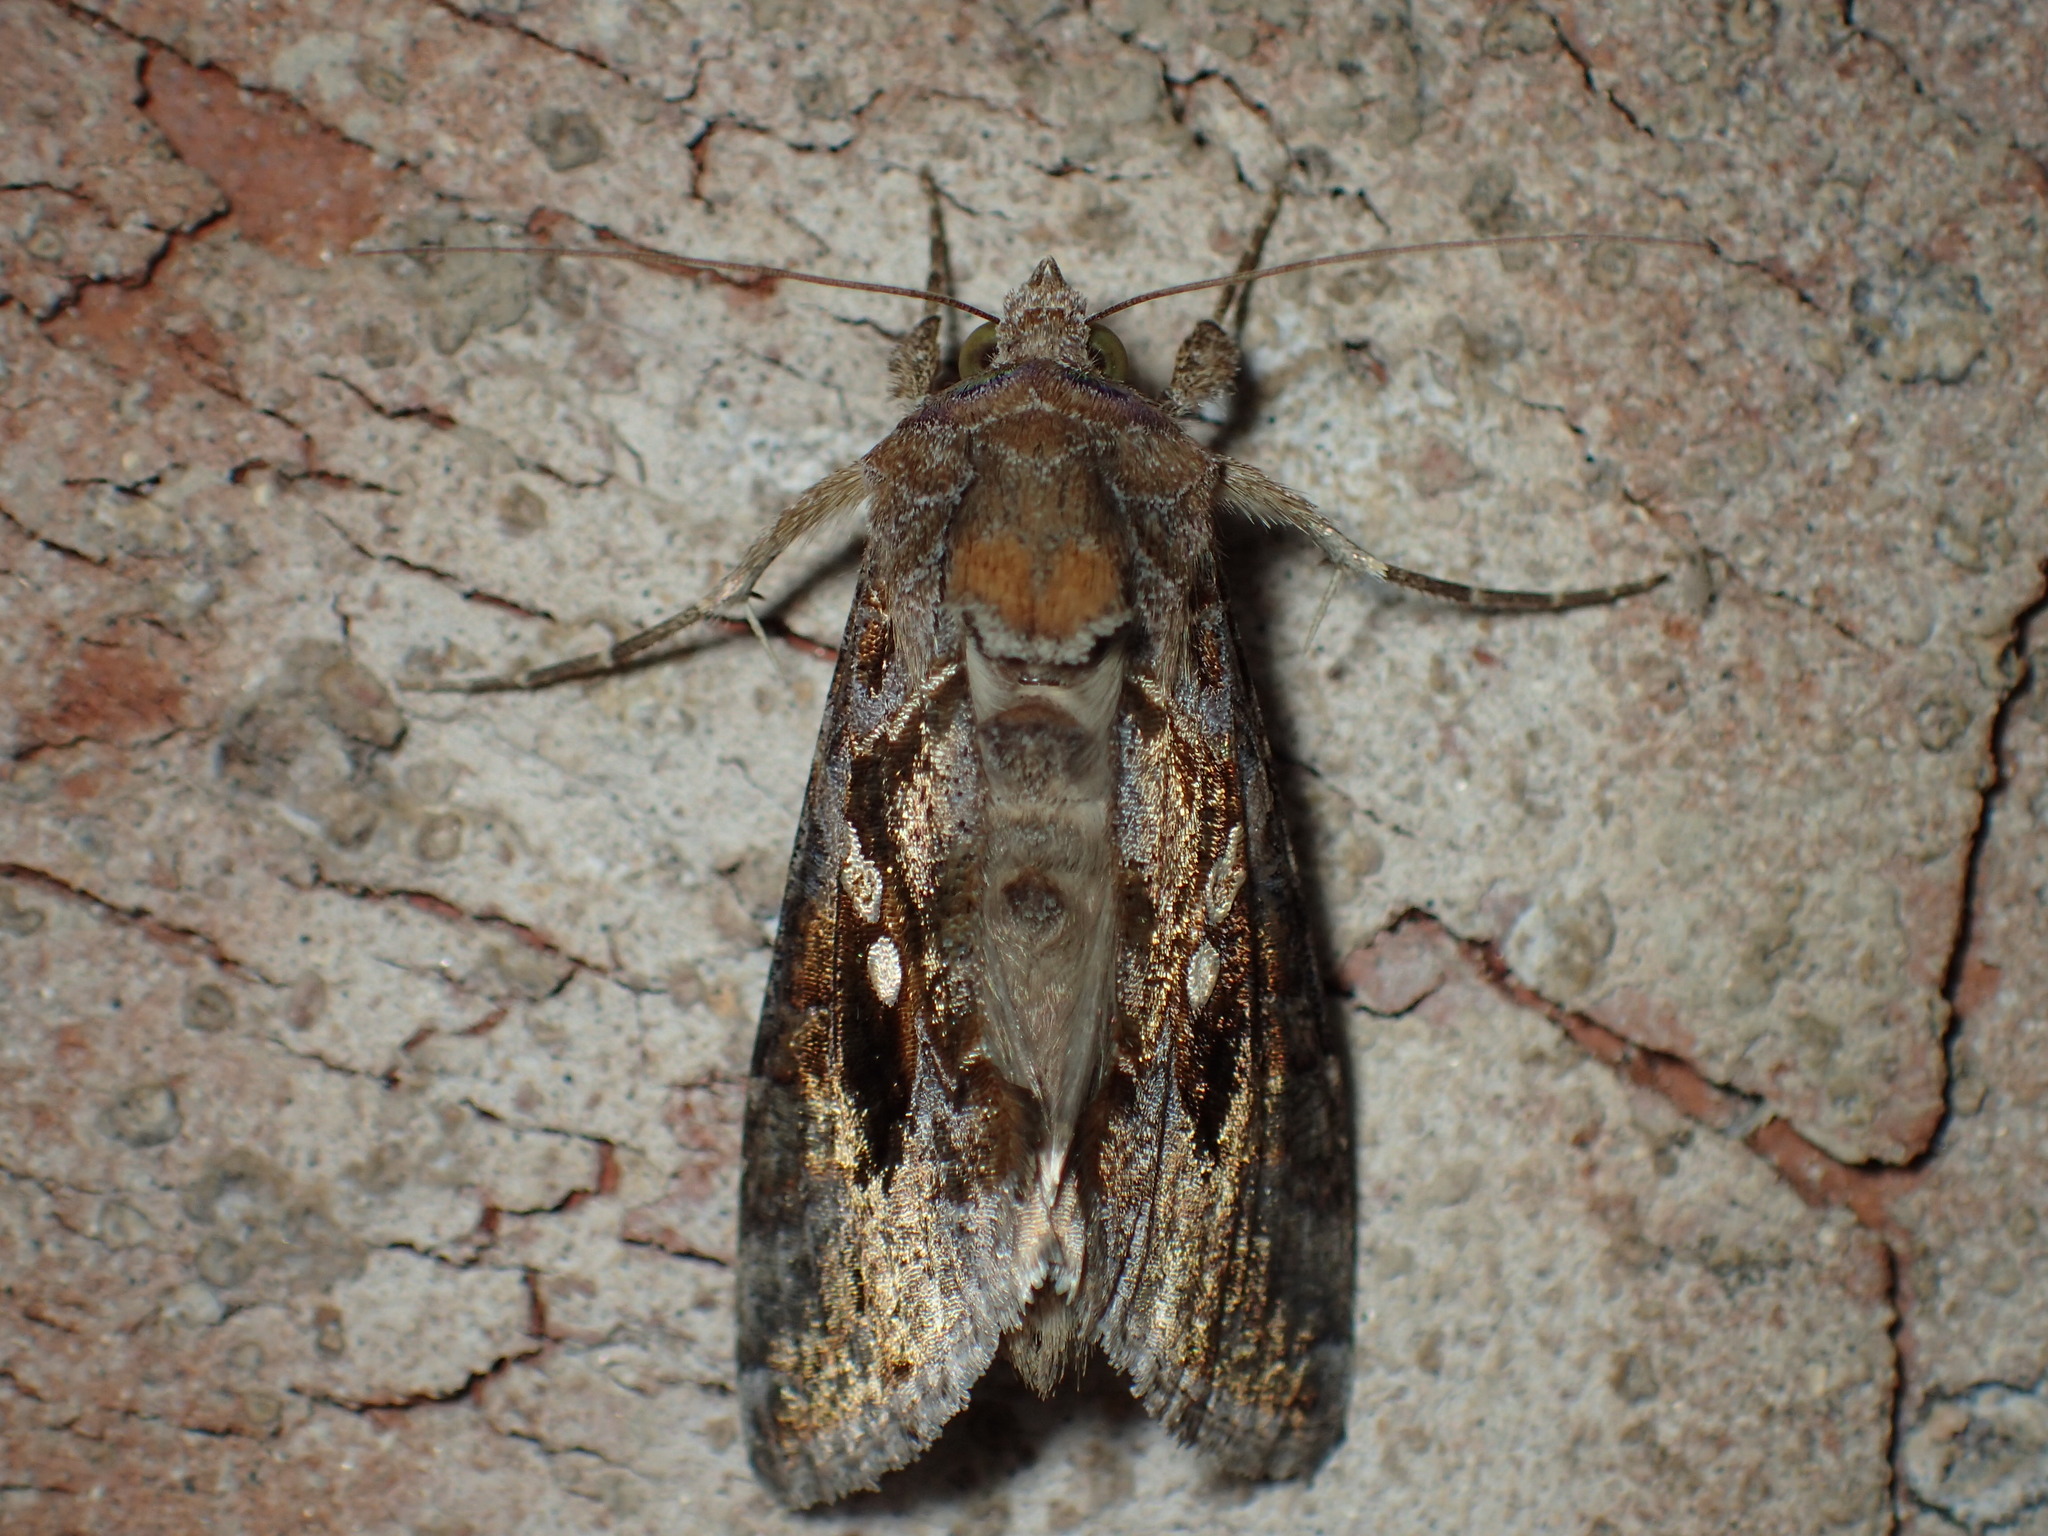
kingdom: Animalia
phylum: Arthropoda
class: Insecta
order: Lepidoptera
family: Noctuidae
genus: Chrysodeixis
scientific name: Chrysodeixis includens
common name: Cutworm moth
